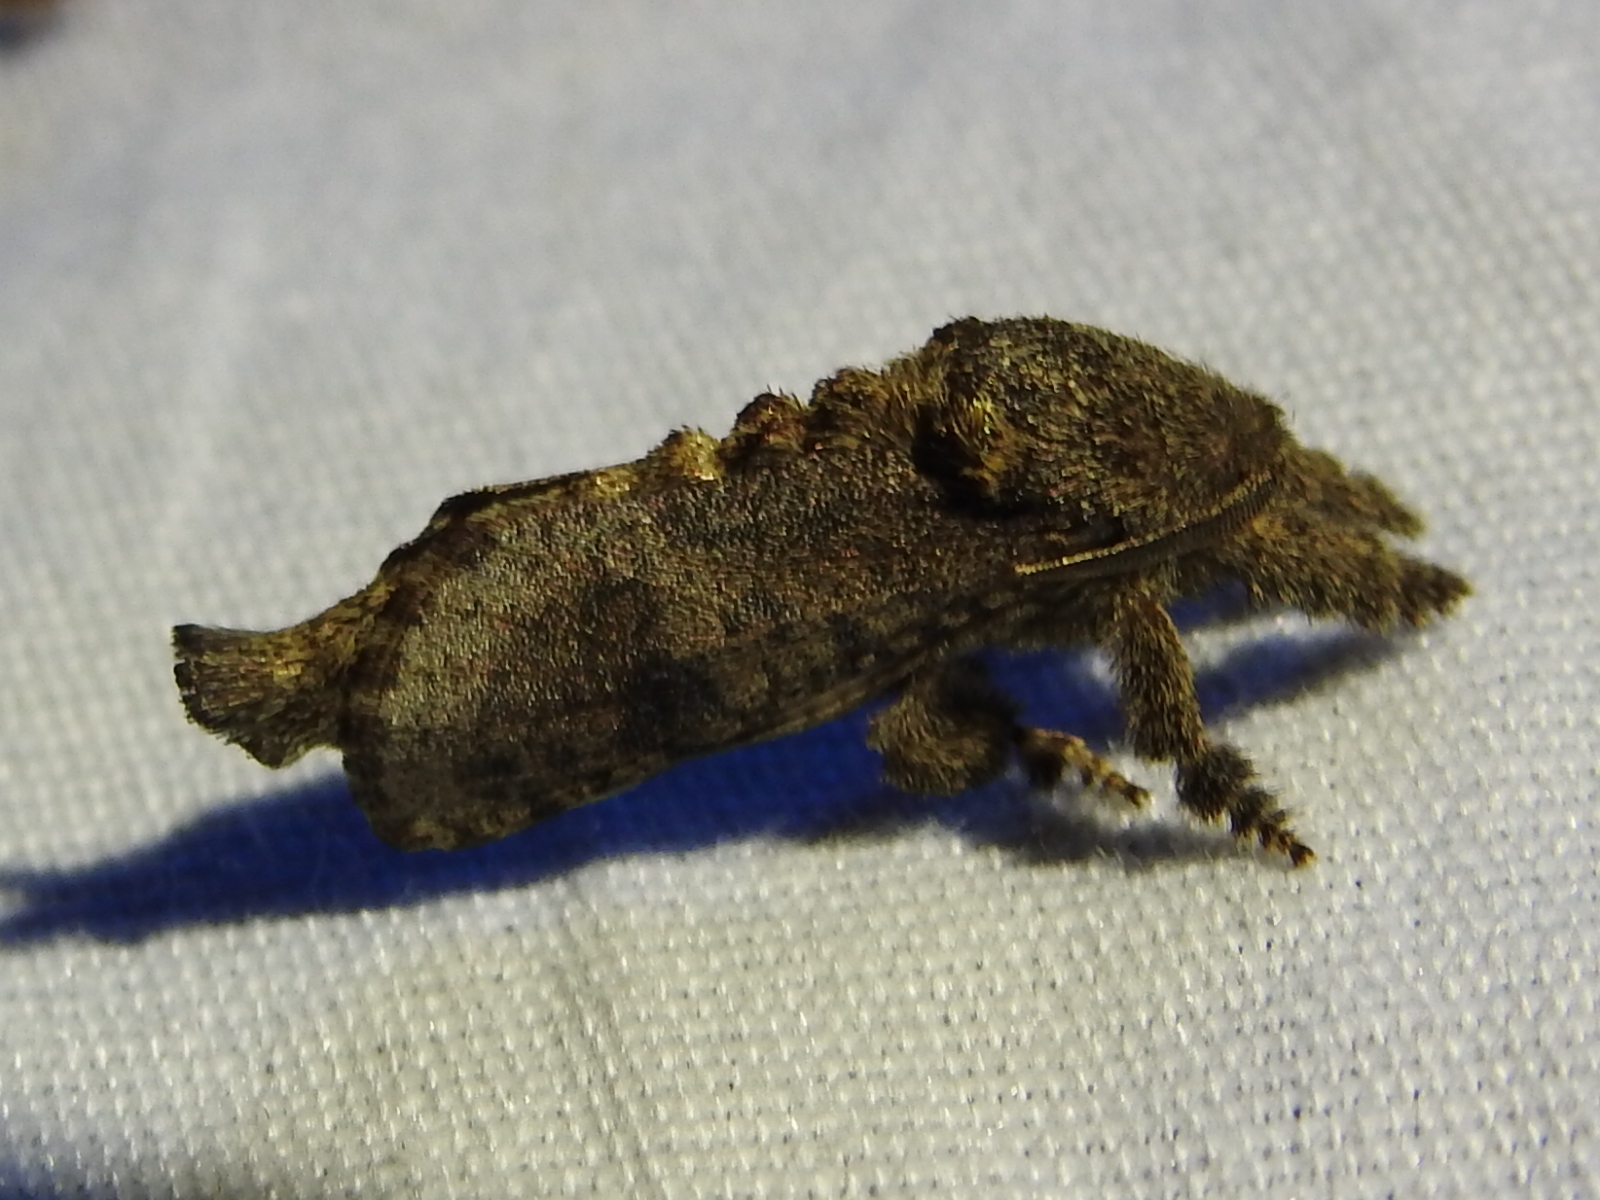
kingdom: Animalia
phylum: Arthropoda
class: Insecta
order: Lepidoptera
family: Cossidae
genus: Givira
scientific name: Givira arbeloides
